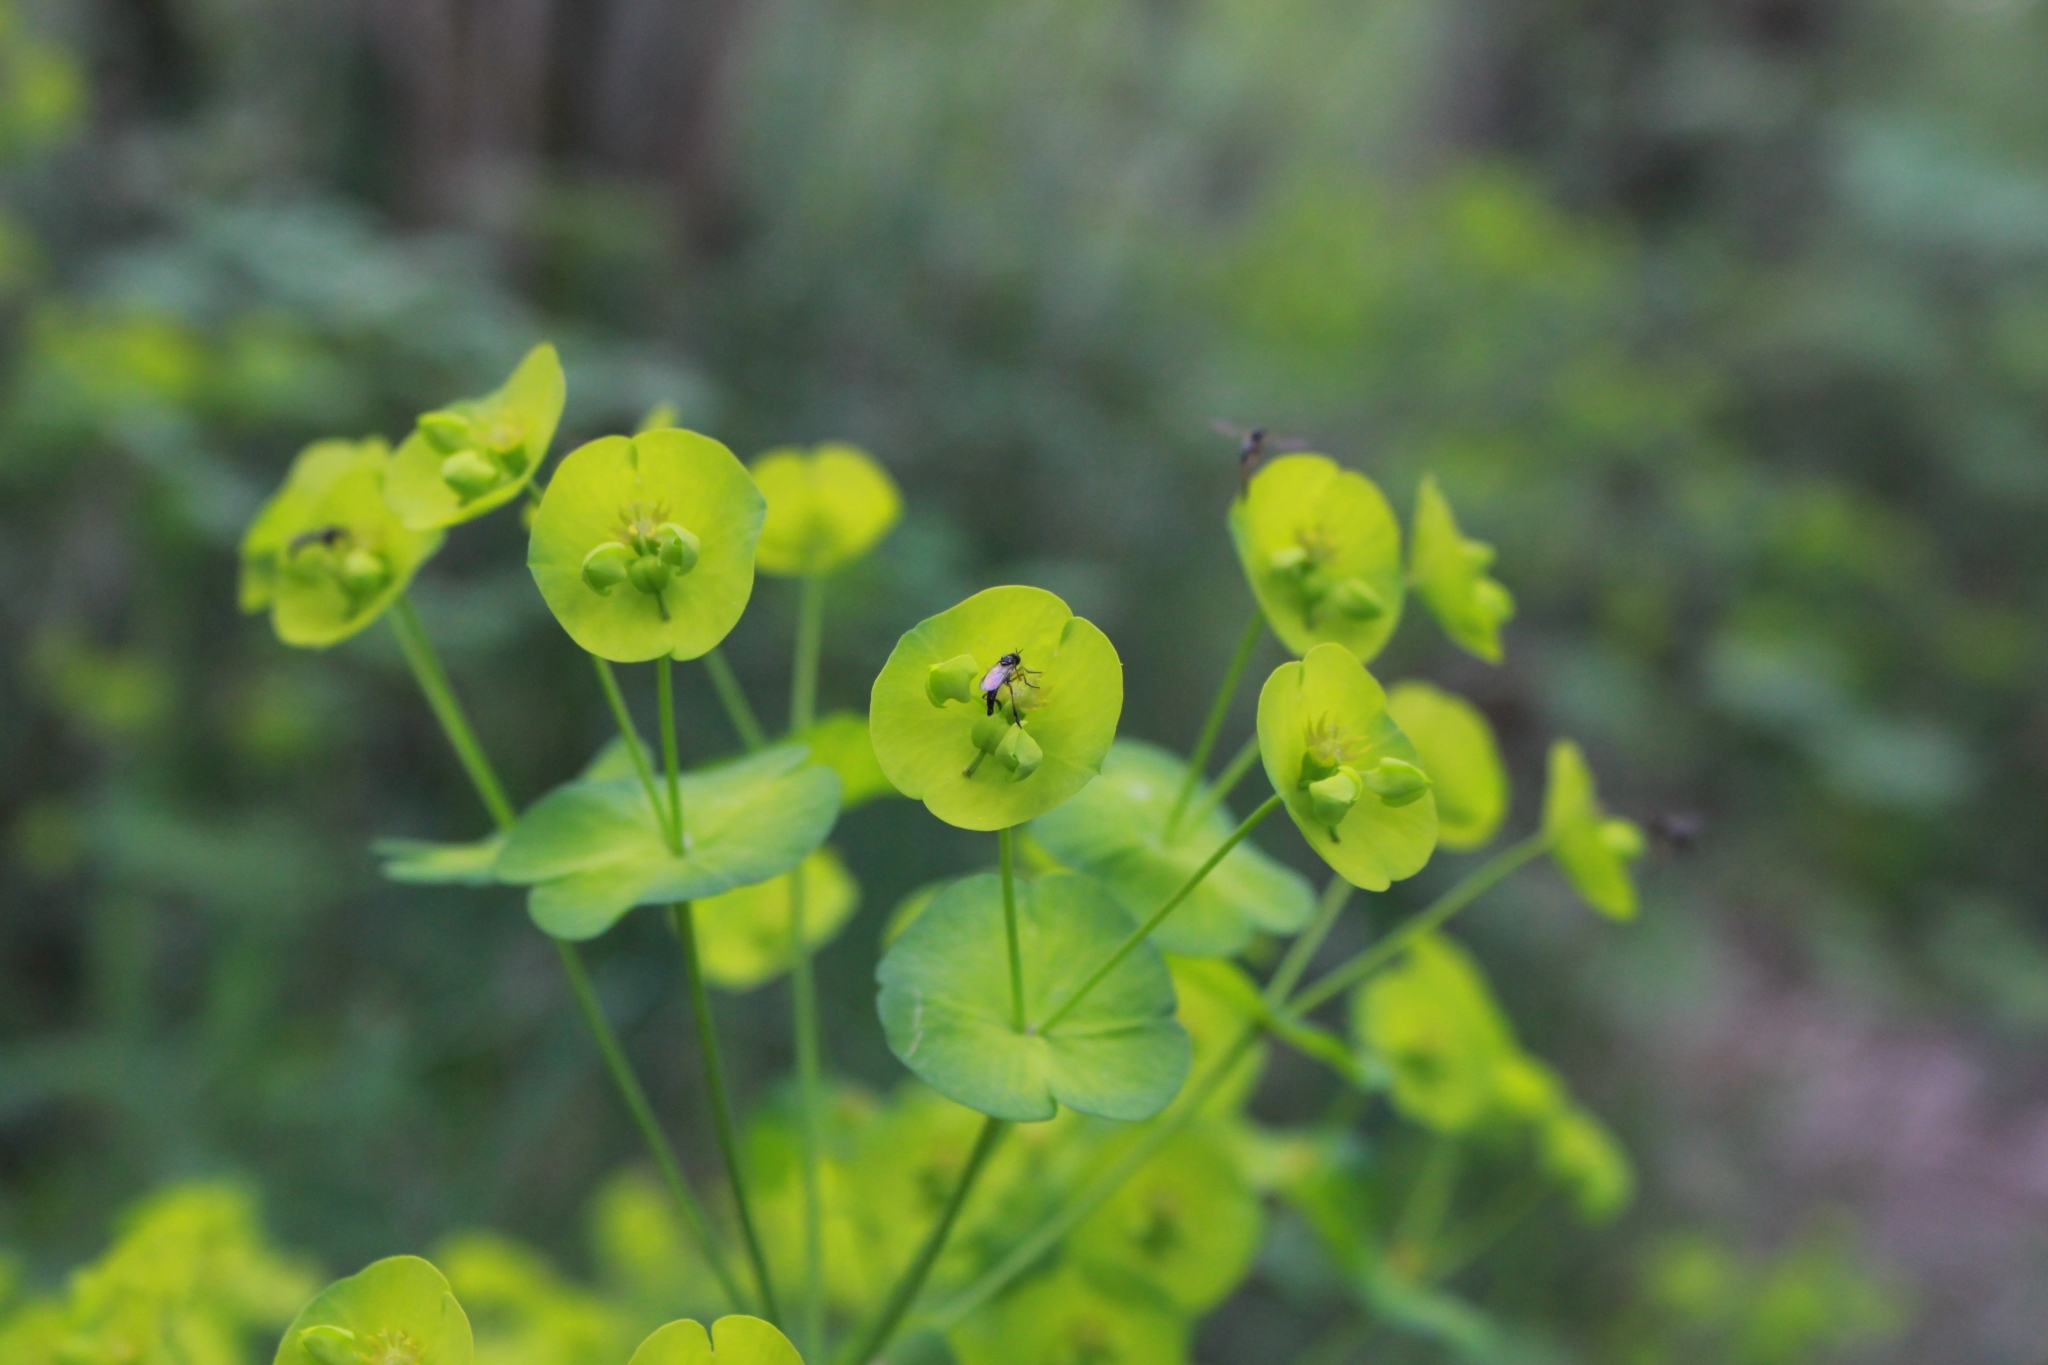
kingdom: Plantae
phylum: Tracheophyta
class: Magnoliopsida
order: Malpighiales
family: Euphorbiaceae
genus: Euphorbia
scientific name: Euphorbia amygdaloides
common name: Wood spurge
